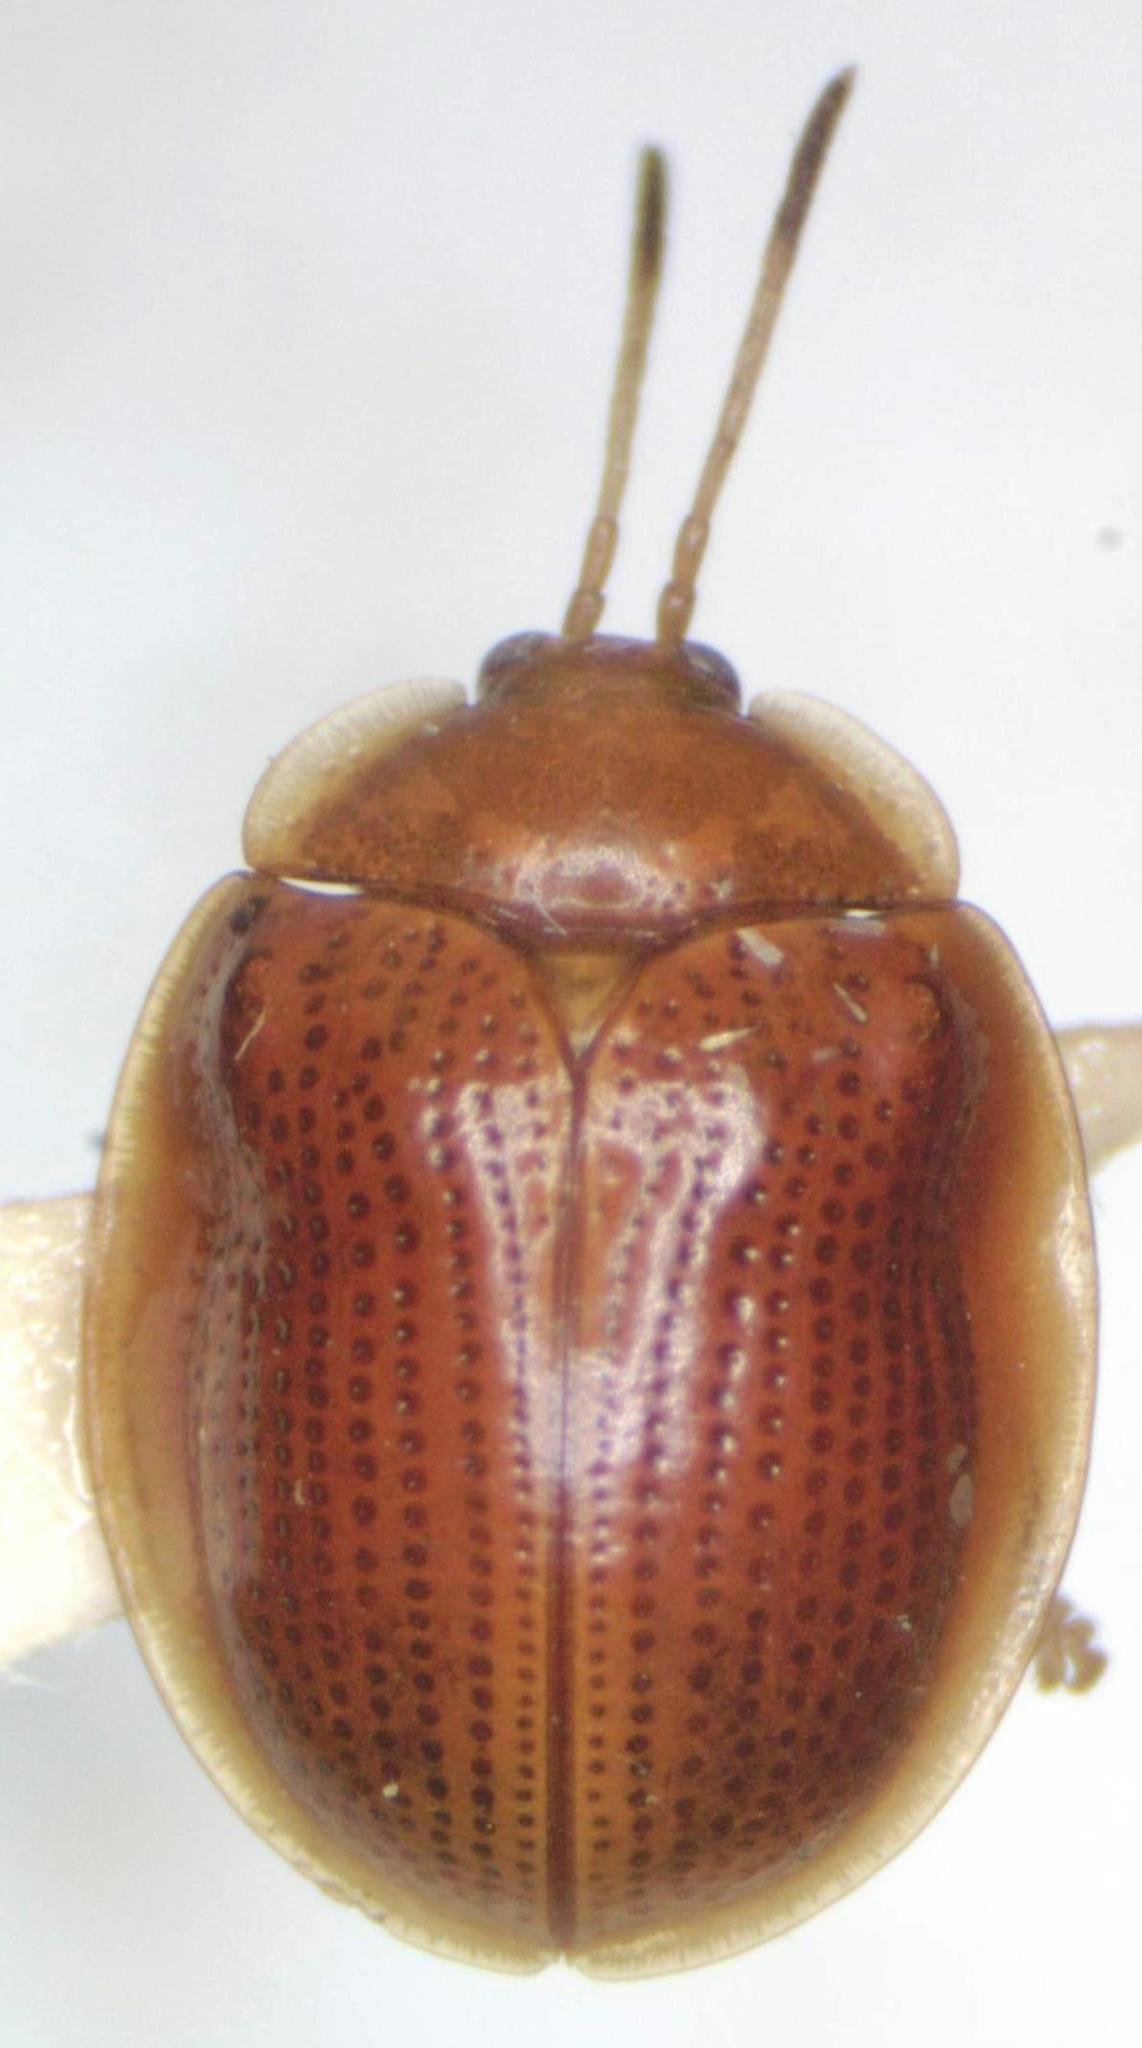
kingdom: Animalia
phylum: Arthropoda
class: Insecta
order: Coleoptera
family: Chrysomelidae
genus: Demotispa
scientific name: Demotispa
